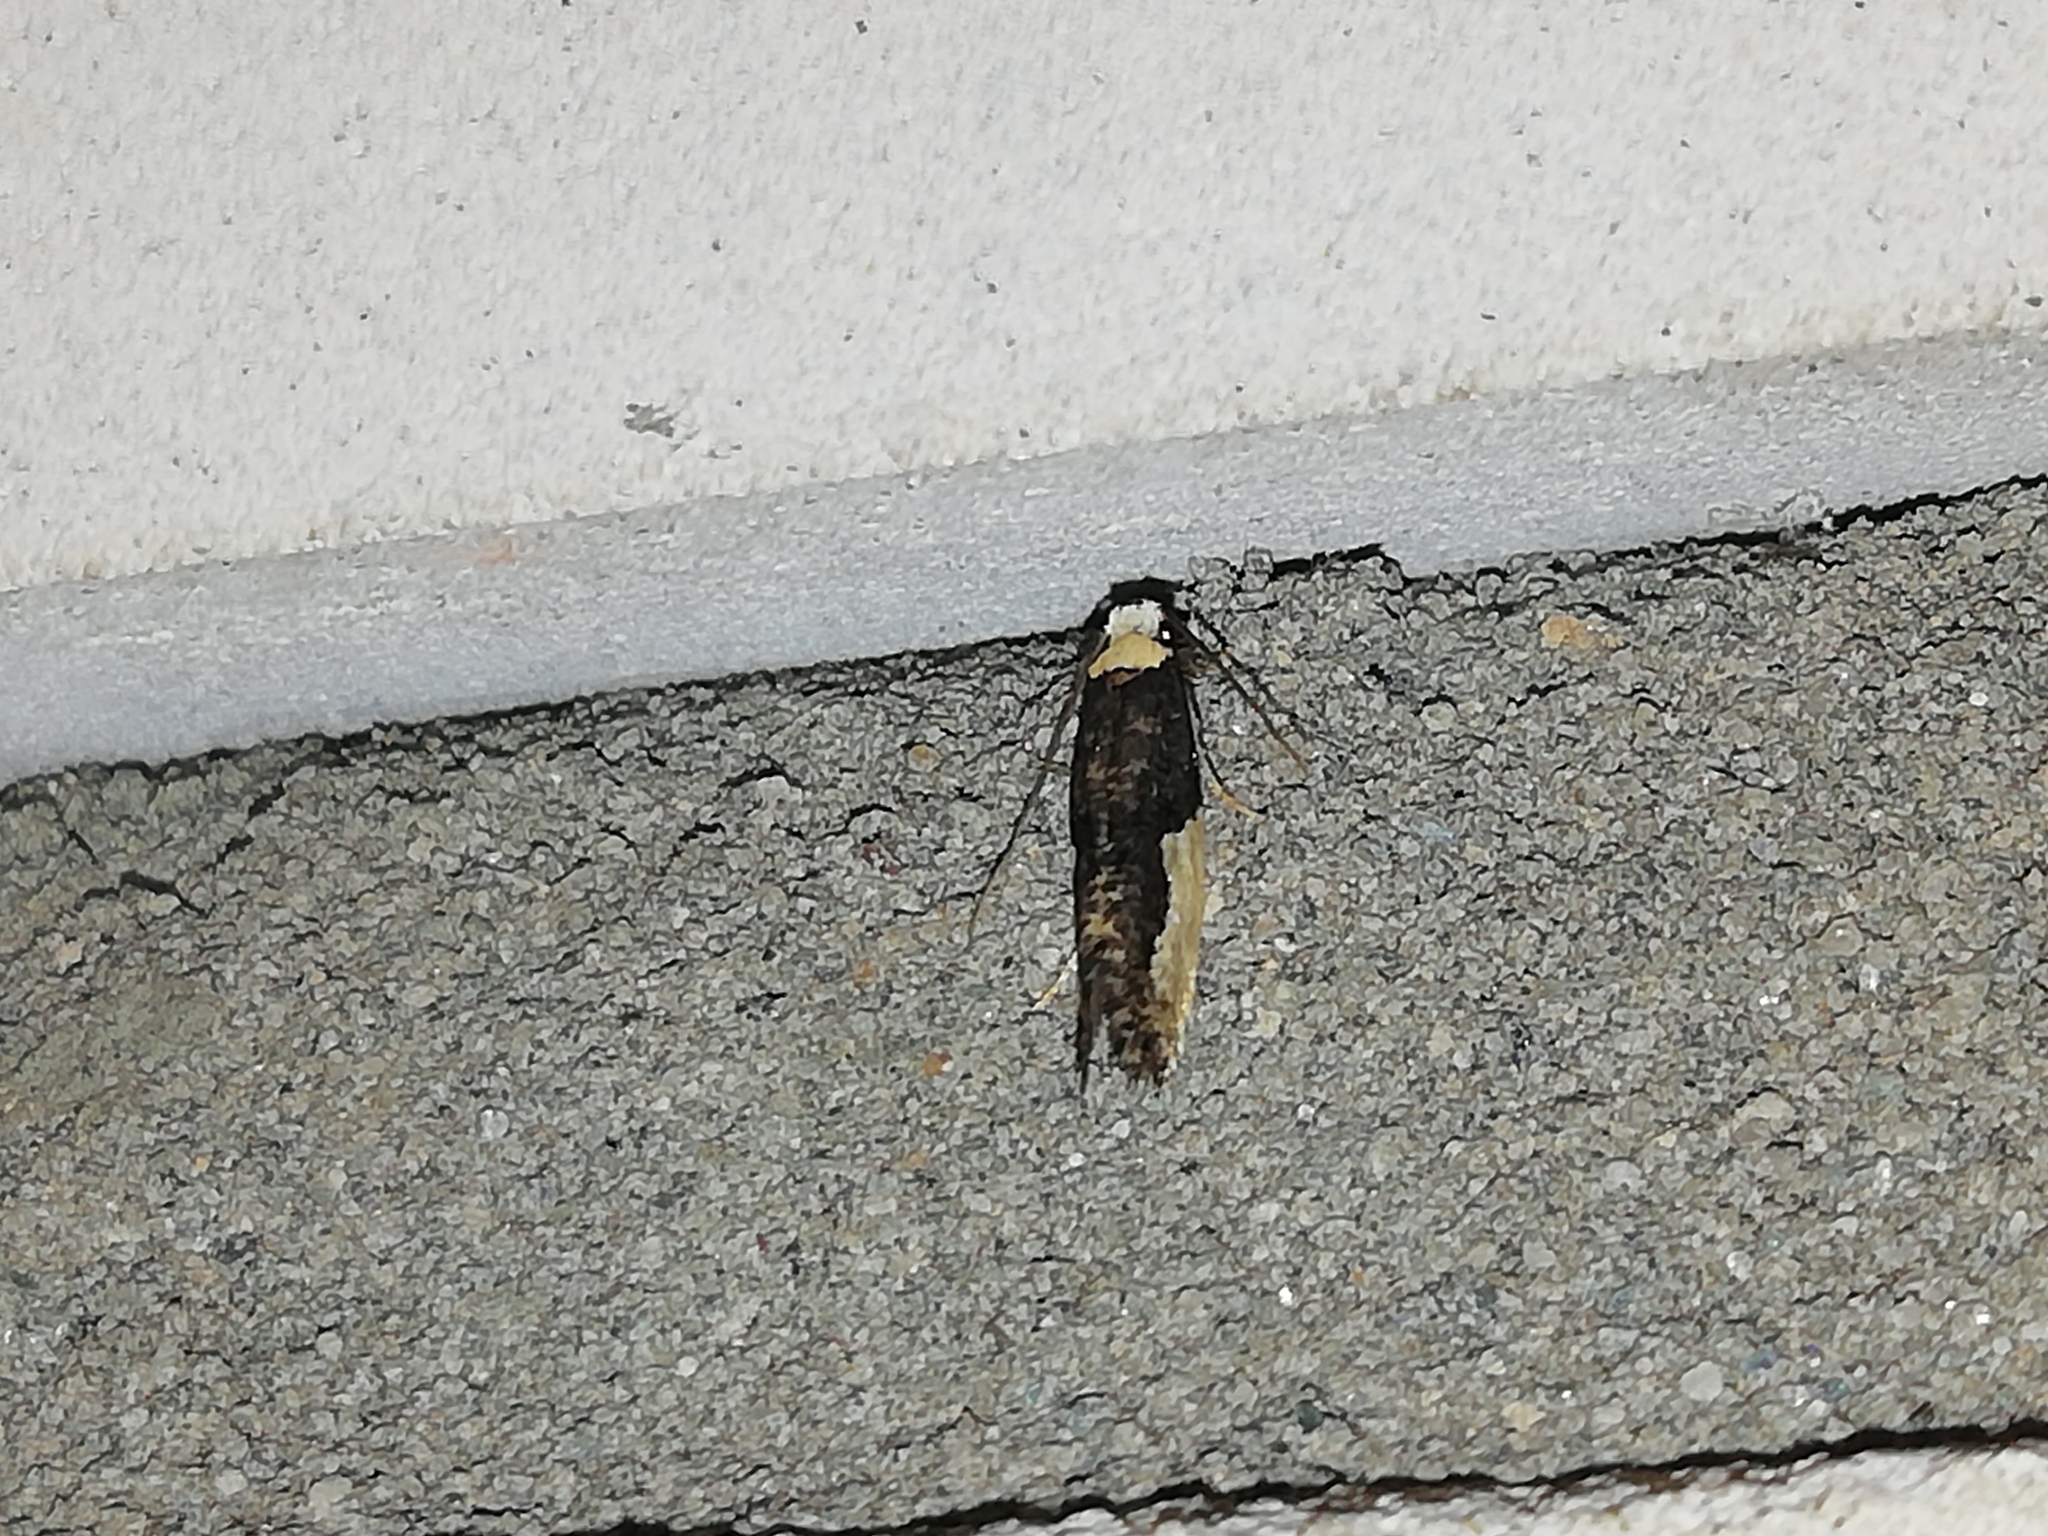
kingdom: Animalia
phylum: Arthropoda
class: Insecta
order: Lepidoptera
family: Tineidae
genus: Monopis
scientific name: Monopis monachella
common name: Moth
